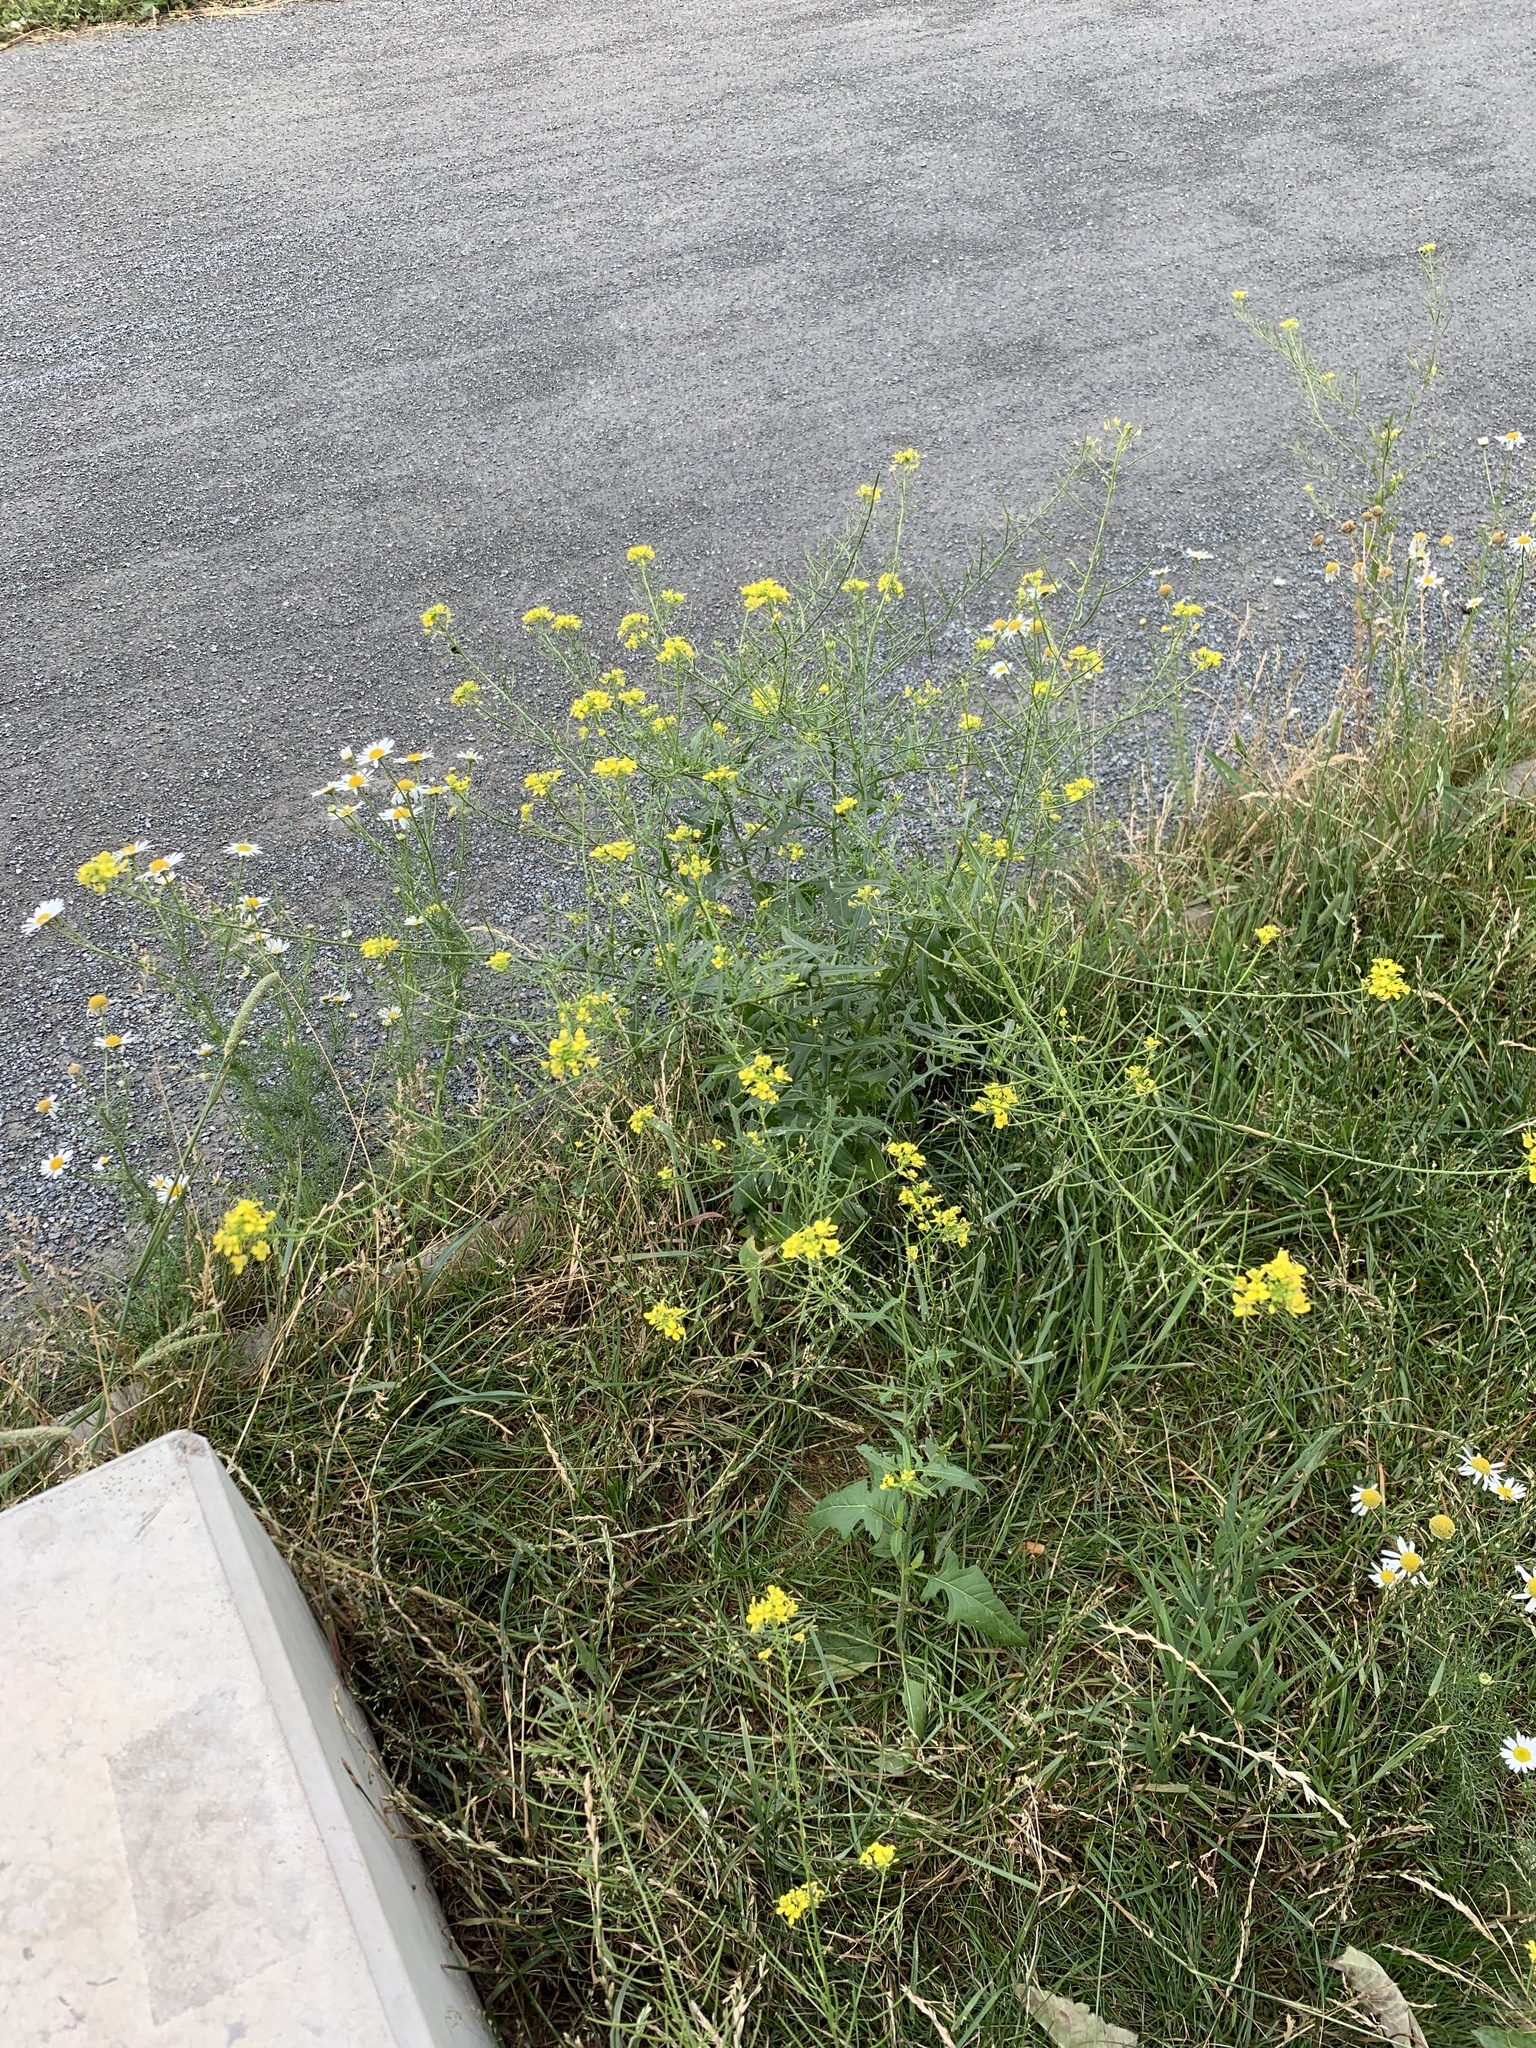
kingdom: Plantae
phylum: Tracheophyta
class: Magnoliopsida
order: Brassicales
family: Brassicaceae
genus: Sisymbrium
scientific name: Sisymbrium loeselii
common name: False london-rocket
